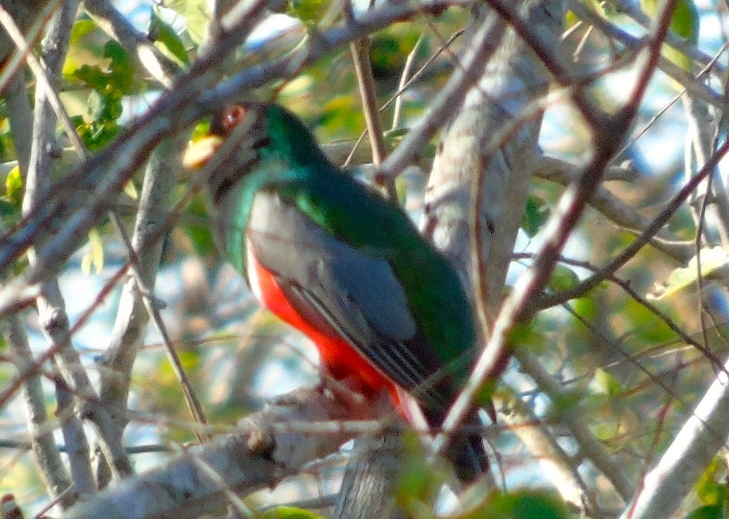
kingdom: Animalia
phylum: Chordata
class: Aves
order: Trogoniformes
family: Trogonidae
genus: Trogon
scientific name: Trogon elegans
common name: Elegant trogon
